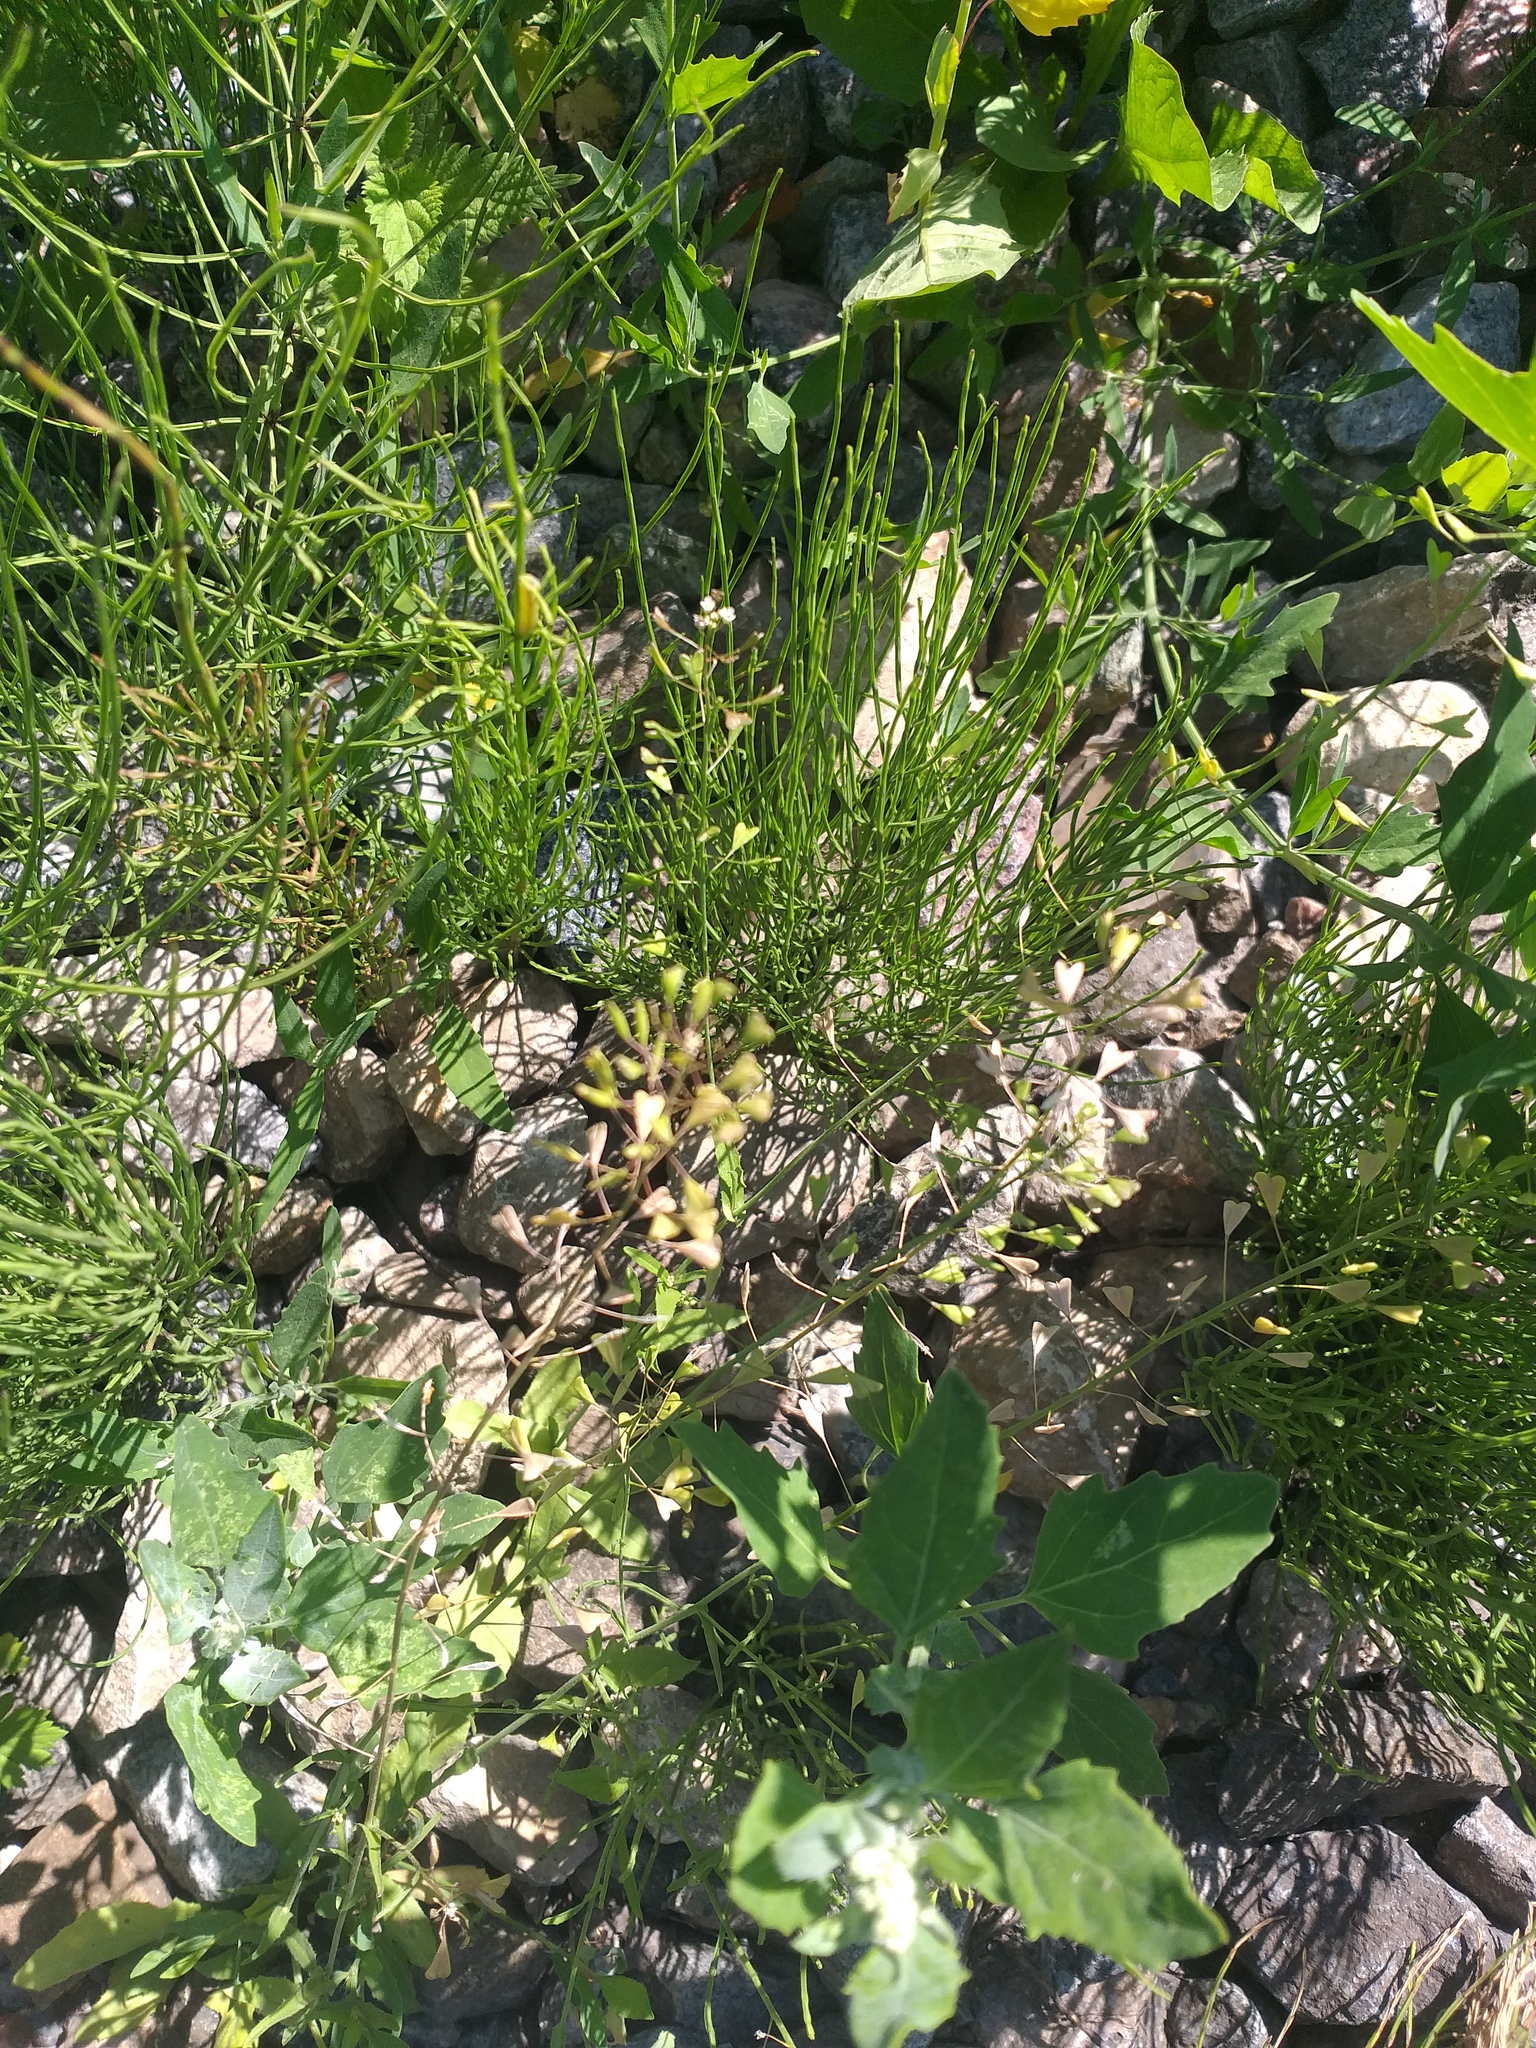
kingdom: Plantae
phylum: Tracheophyta
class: Magnoliopsida
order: Brassicales
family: Brassicaceae
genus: Capsella
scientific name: Capsella bursa-pastoris
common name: Shepherd's purse
